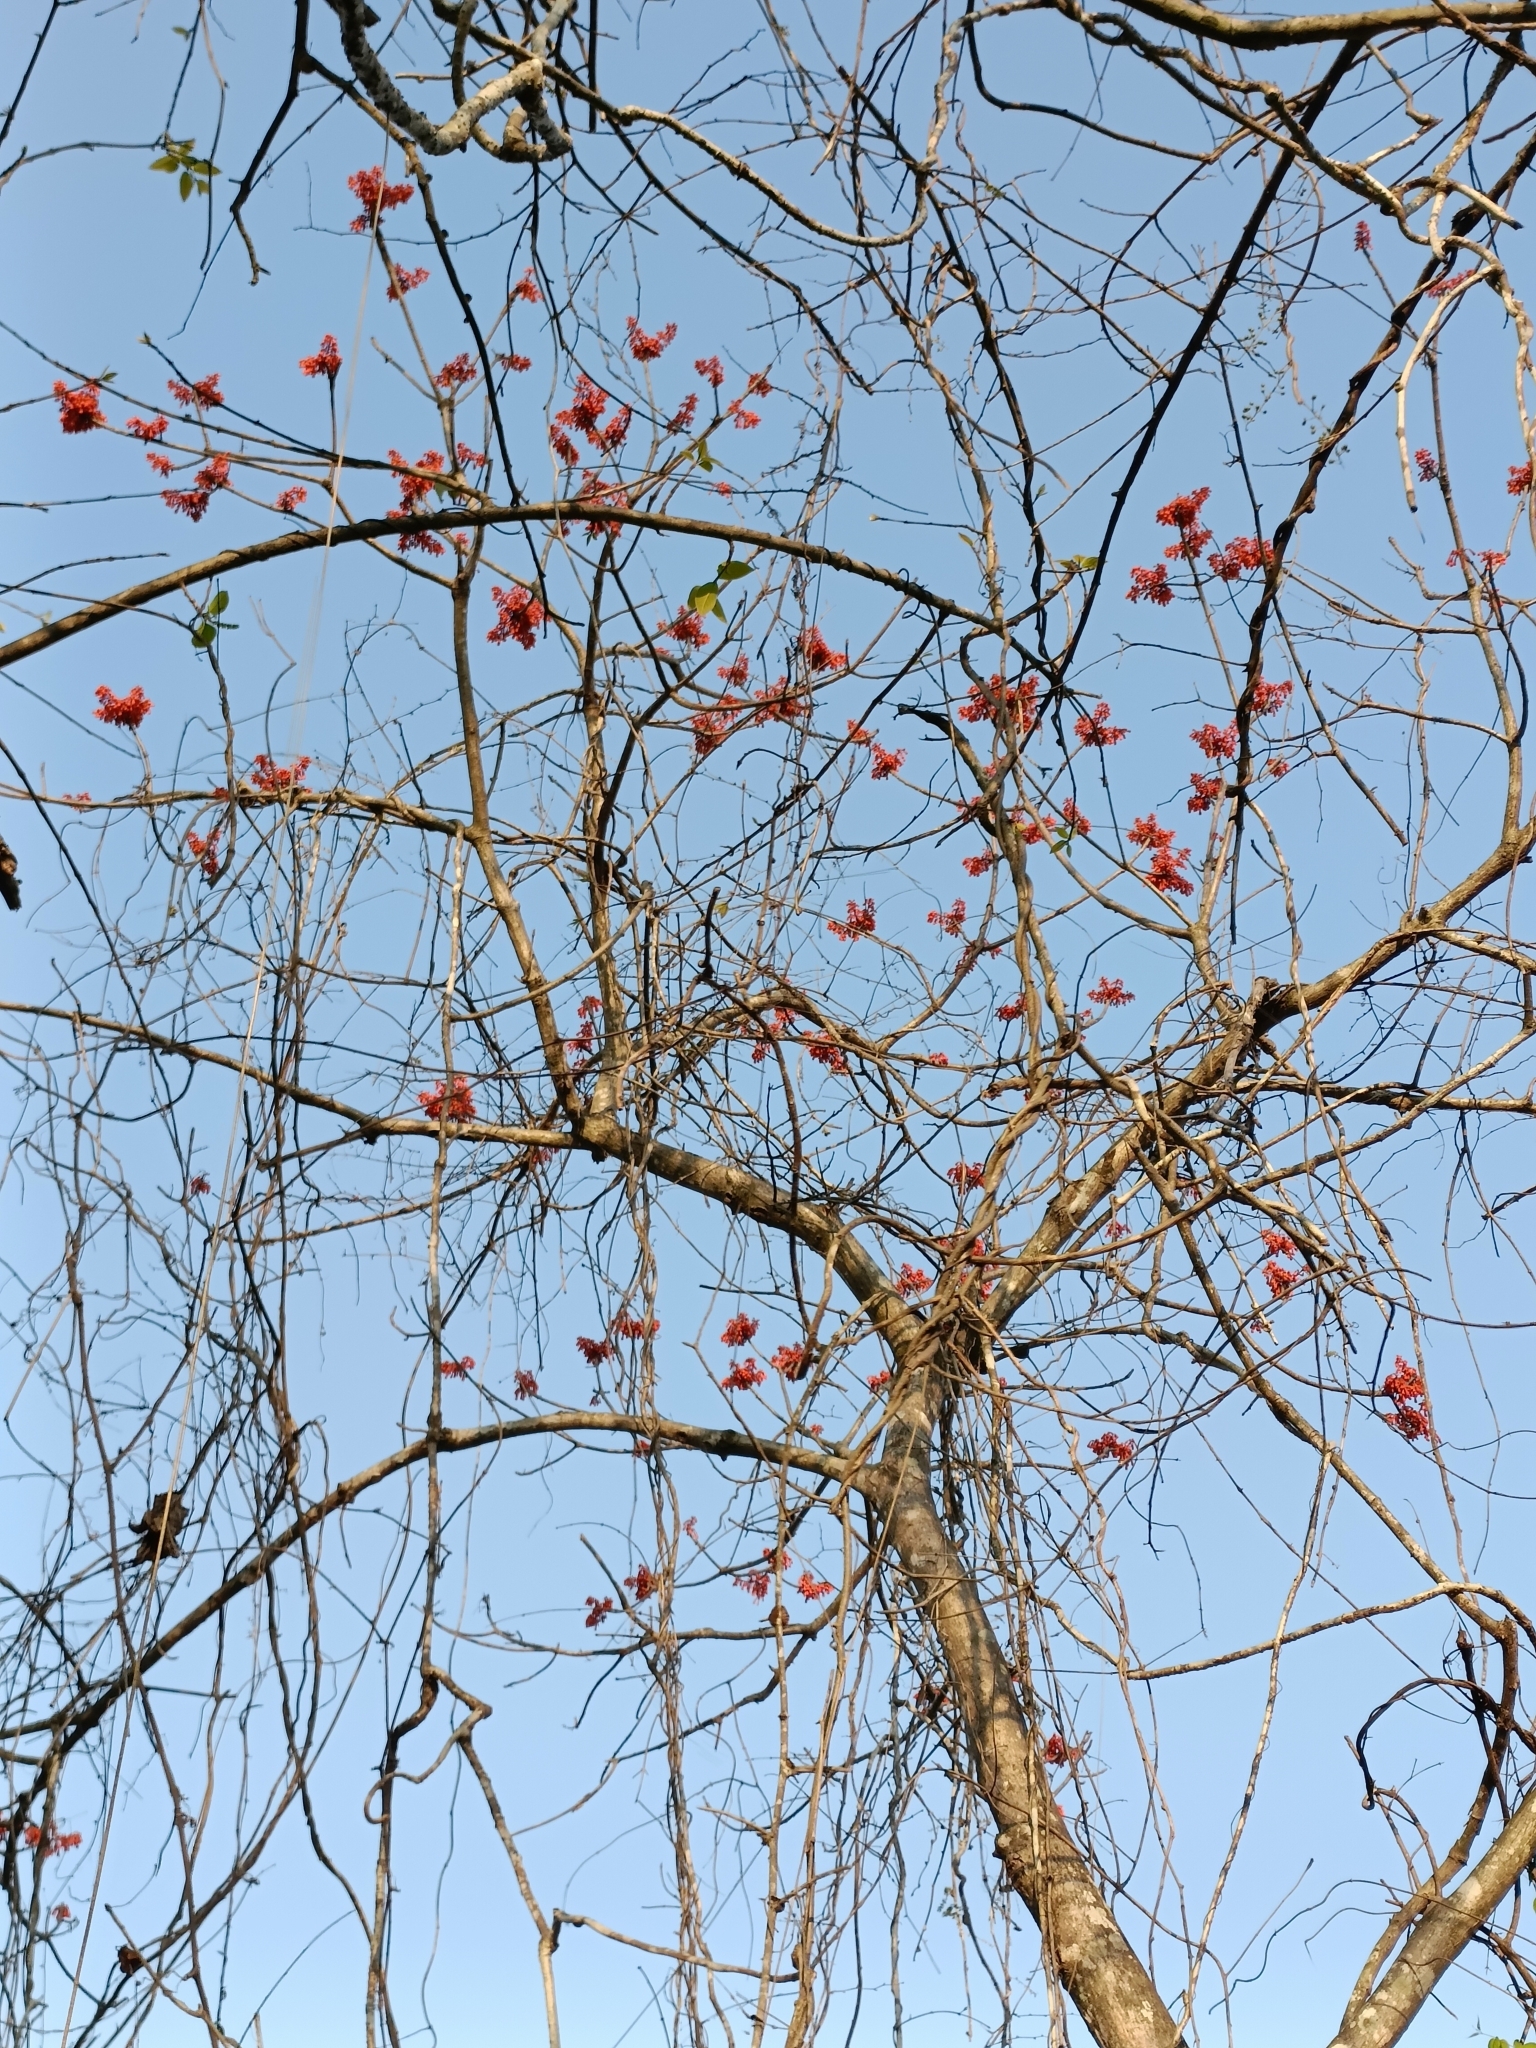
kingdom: Plantae
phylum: Tracheophyta
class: Magnoliopsida
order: Malvales
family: Malvaceae
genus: Firmiana
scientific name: Firmiana colorata
